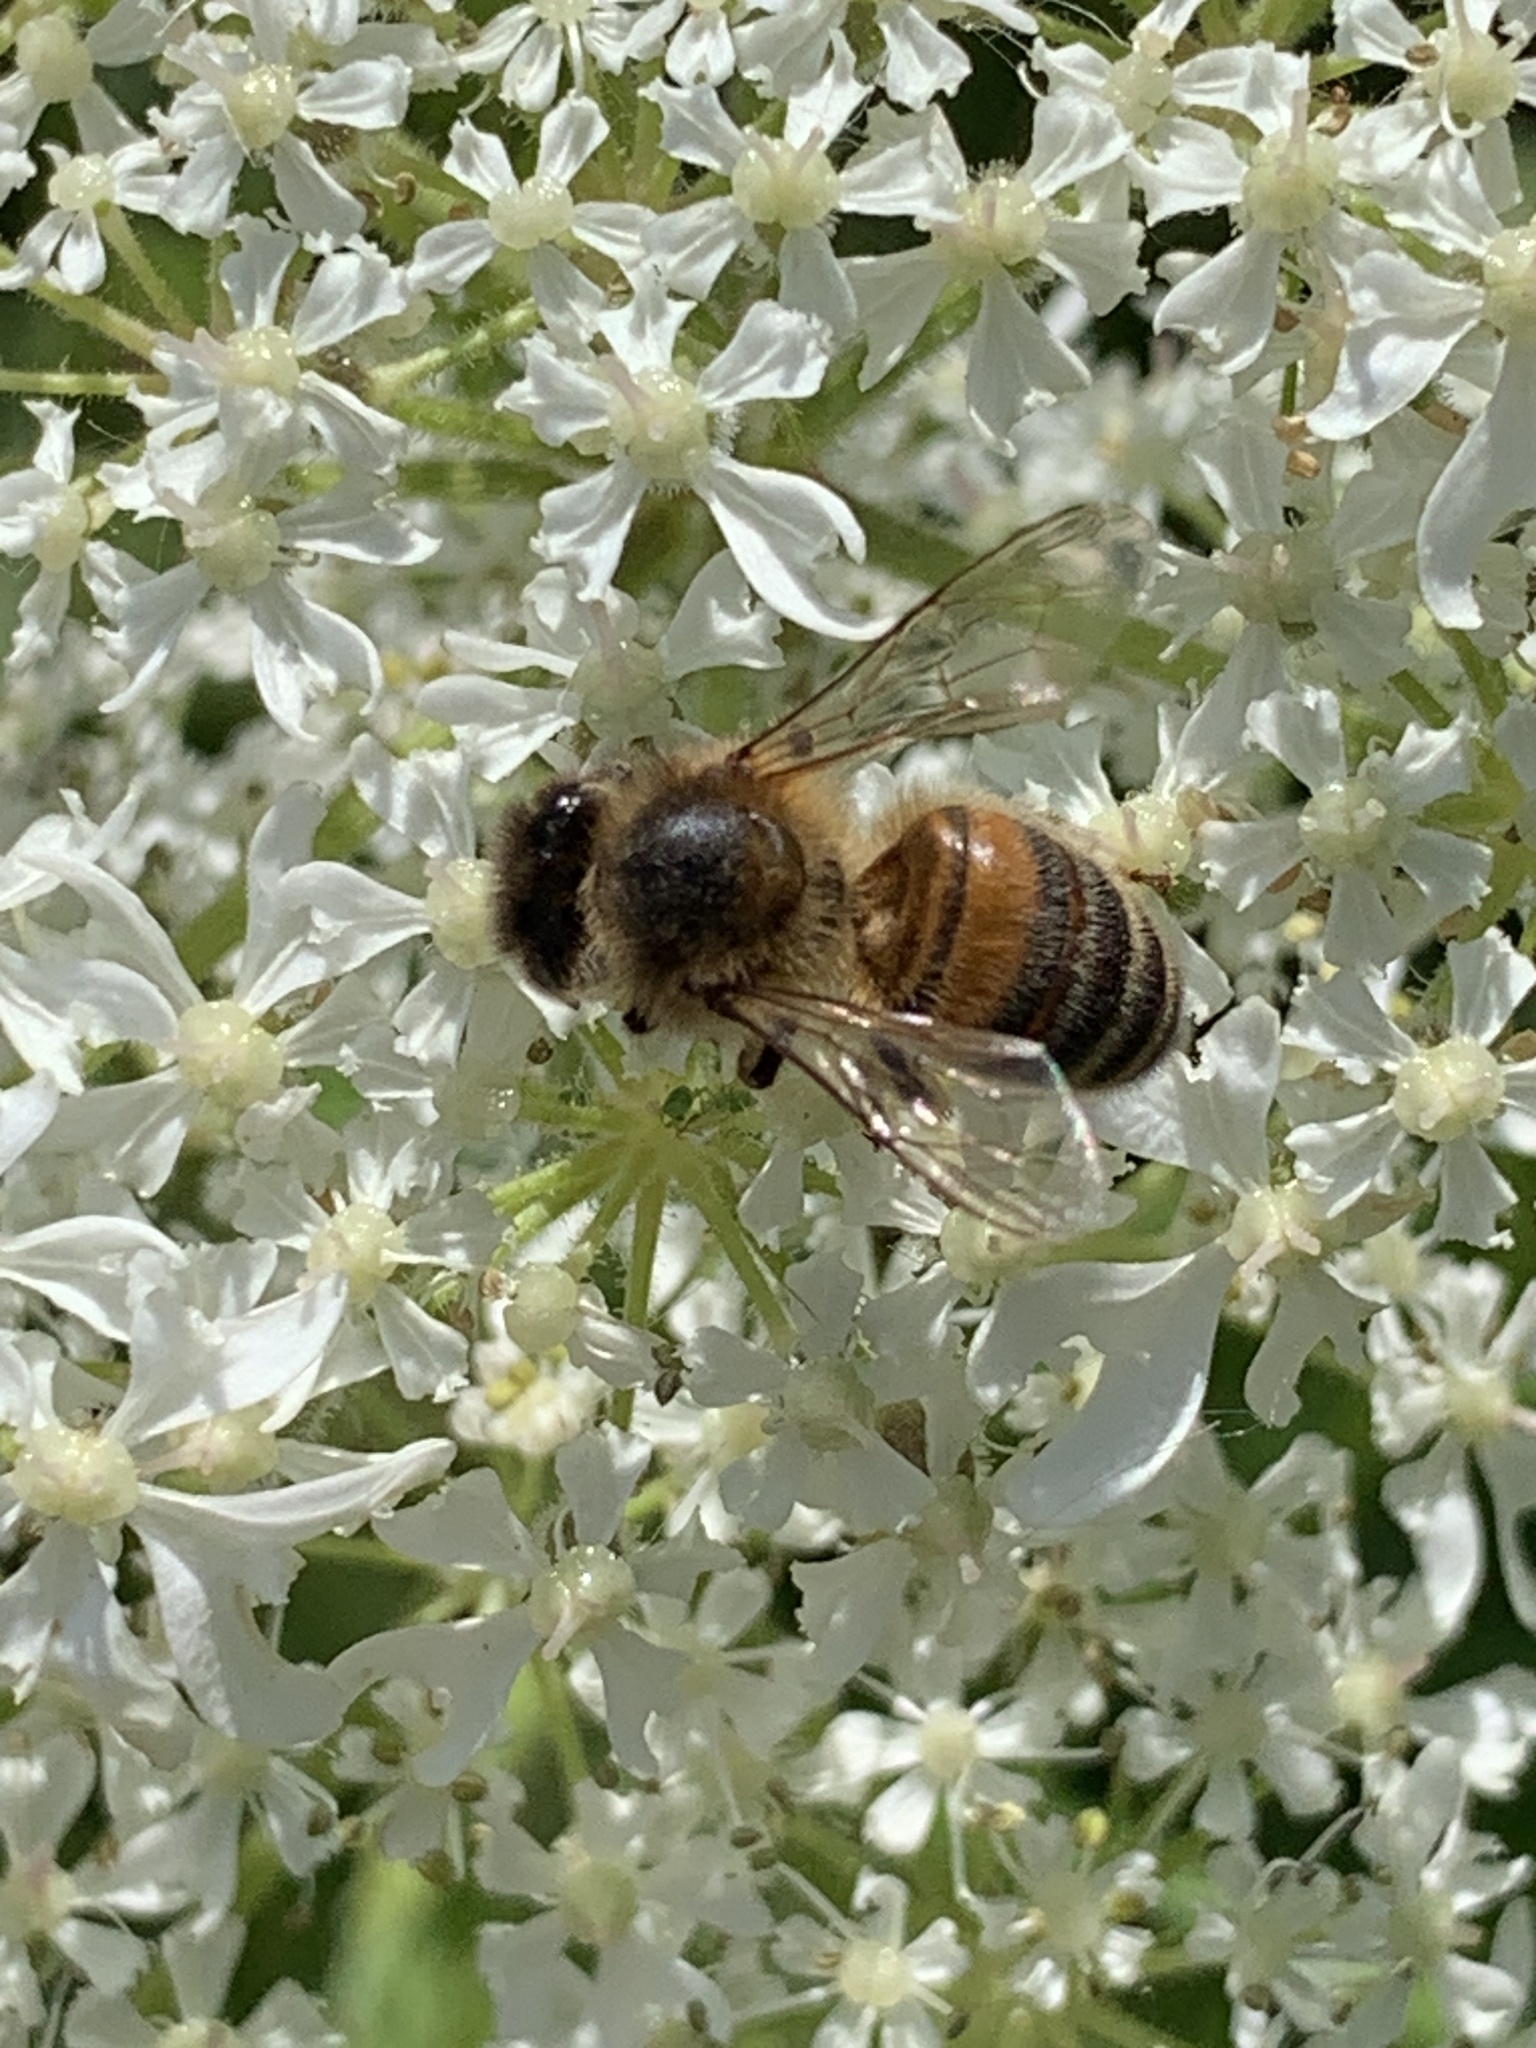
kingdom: Animalia
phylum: Arthropoda
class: Insecta
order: Hymenoptera
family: Apidae
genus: Apis
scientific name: Apis mellifera
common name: Honey bee
